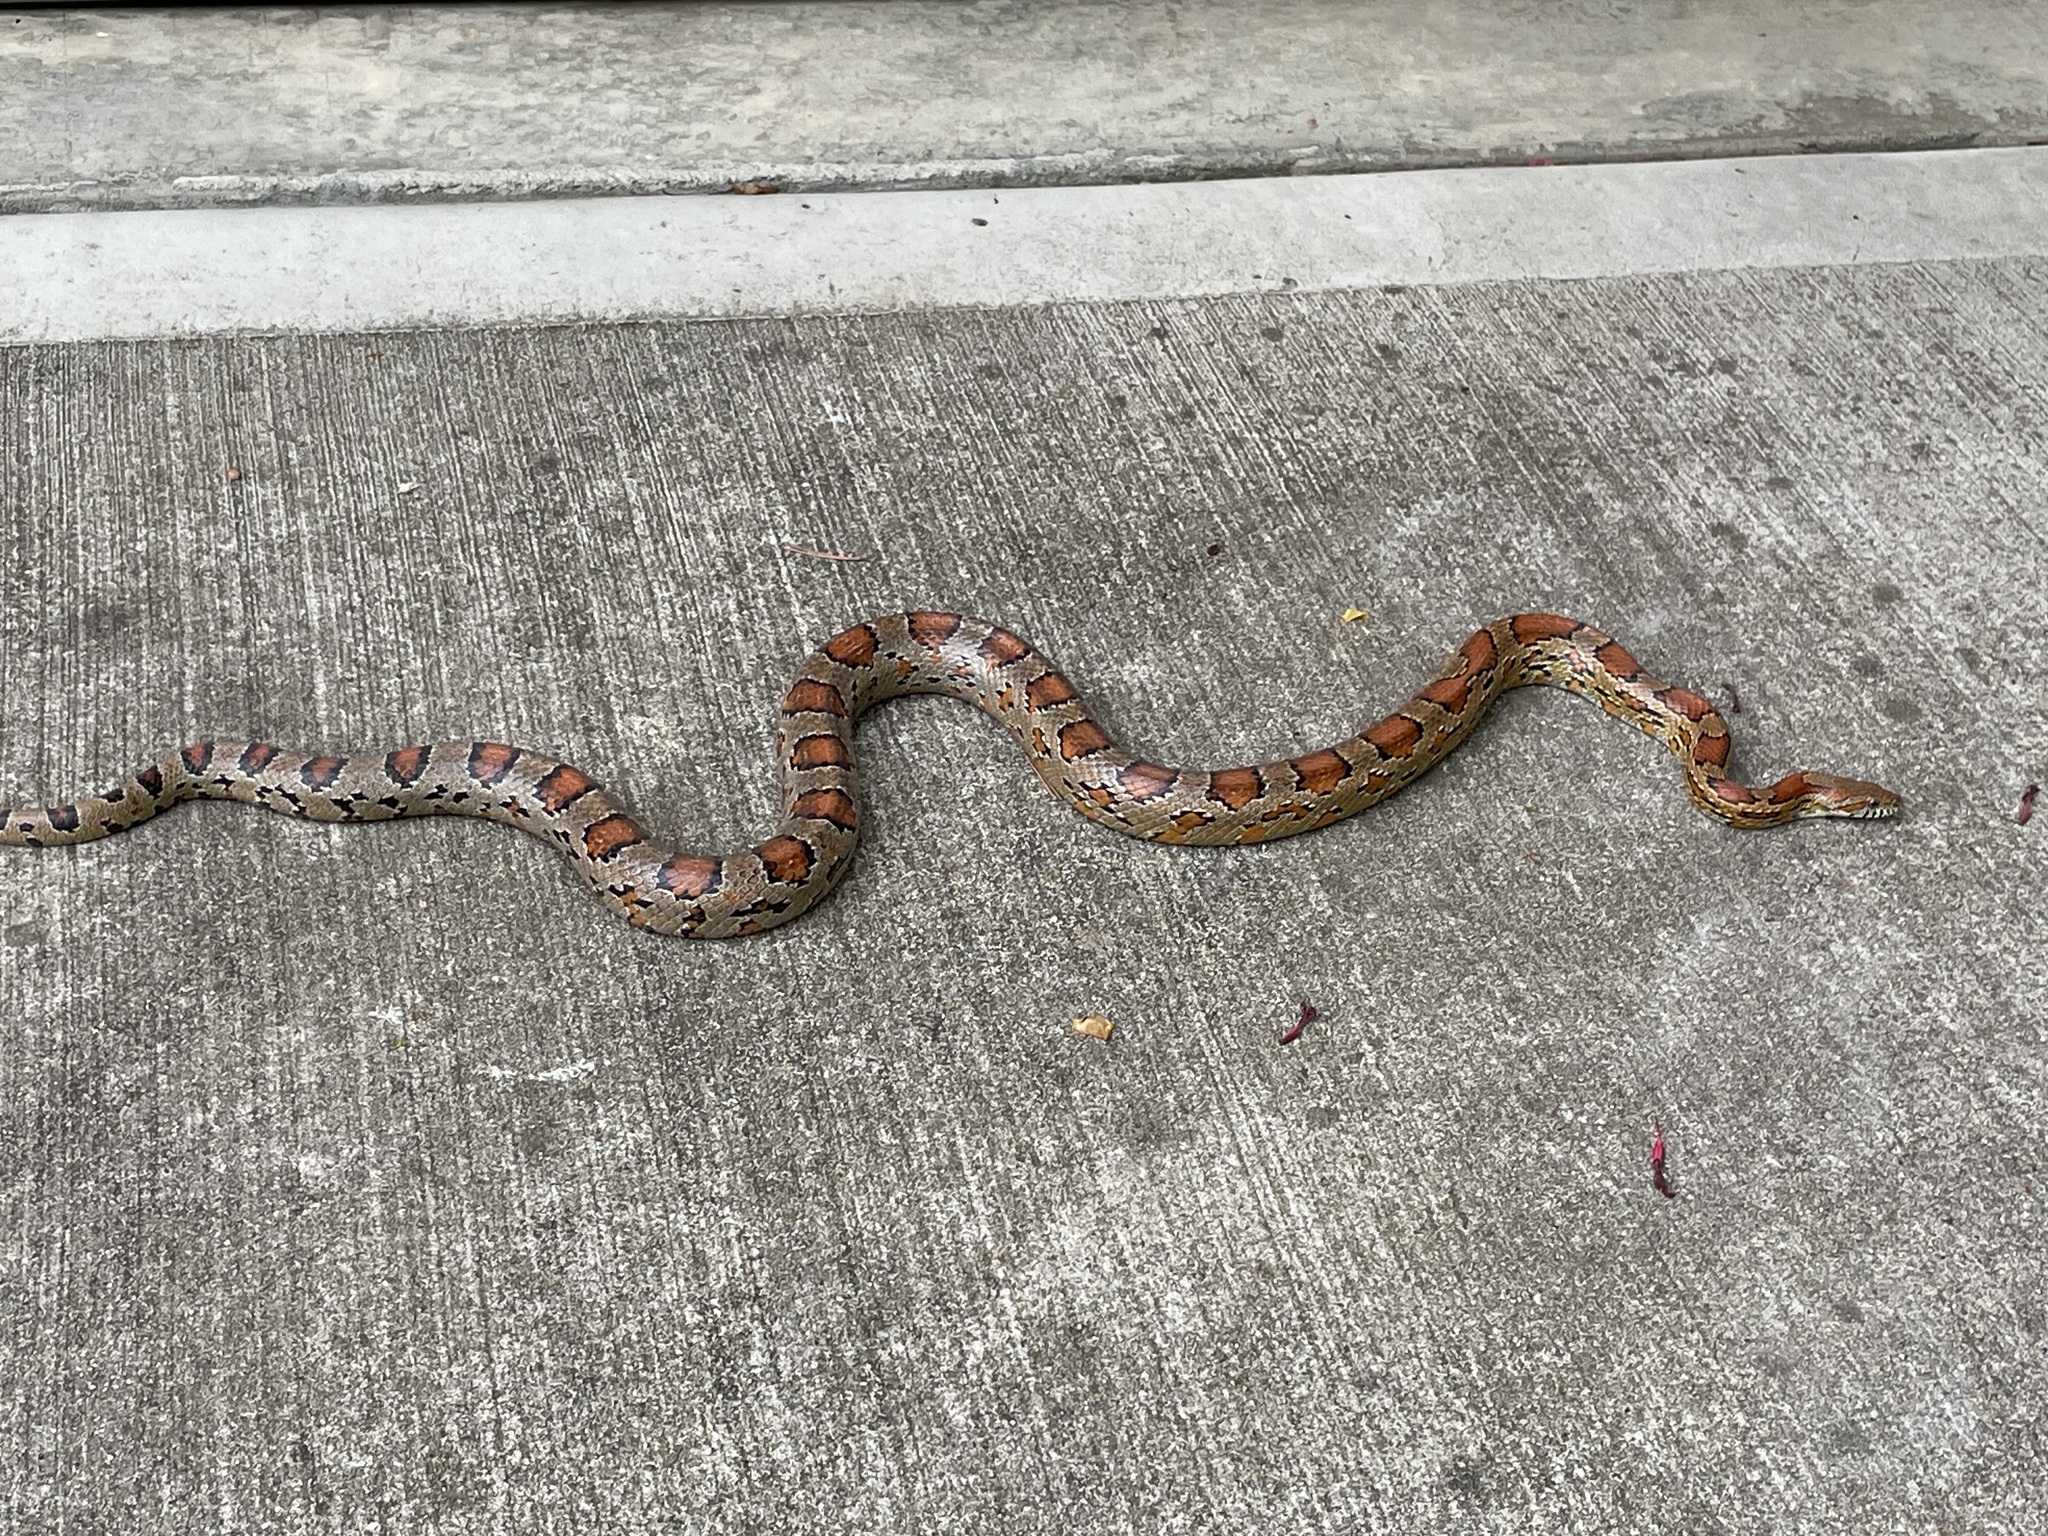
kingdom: Animalia
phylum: Chordata
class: Squamata
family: Colubridae
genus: Pantherophis
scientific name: Pantherophis guttatus
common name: Red cornsnake
